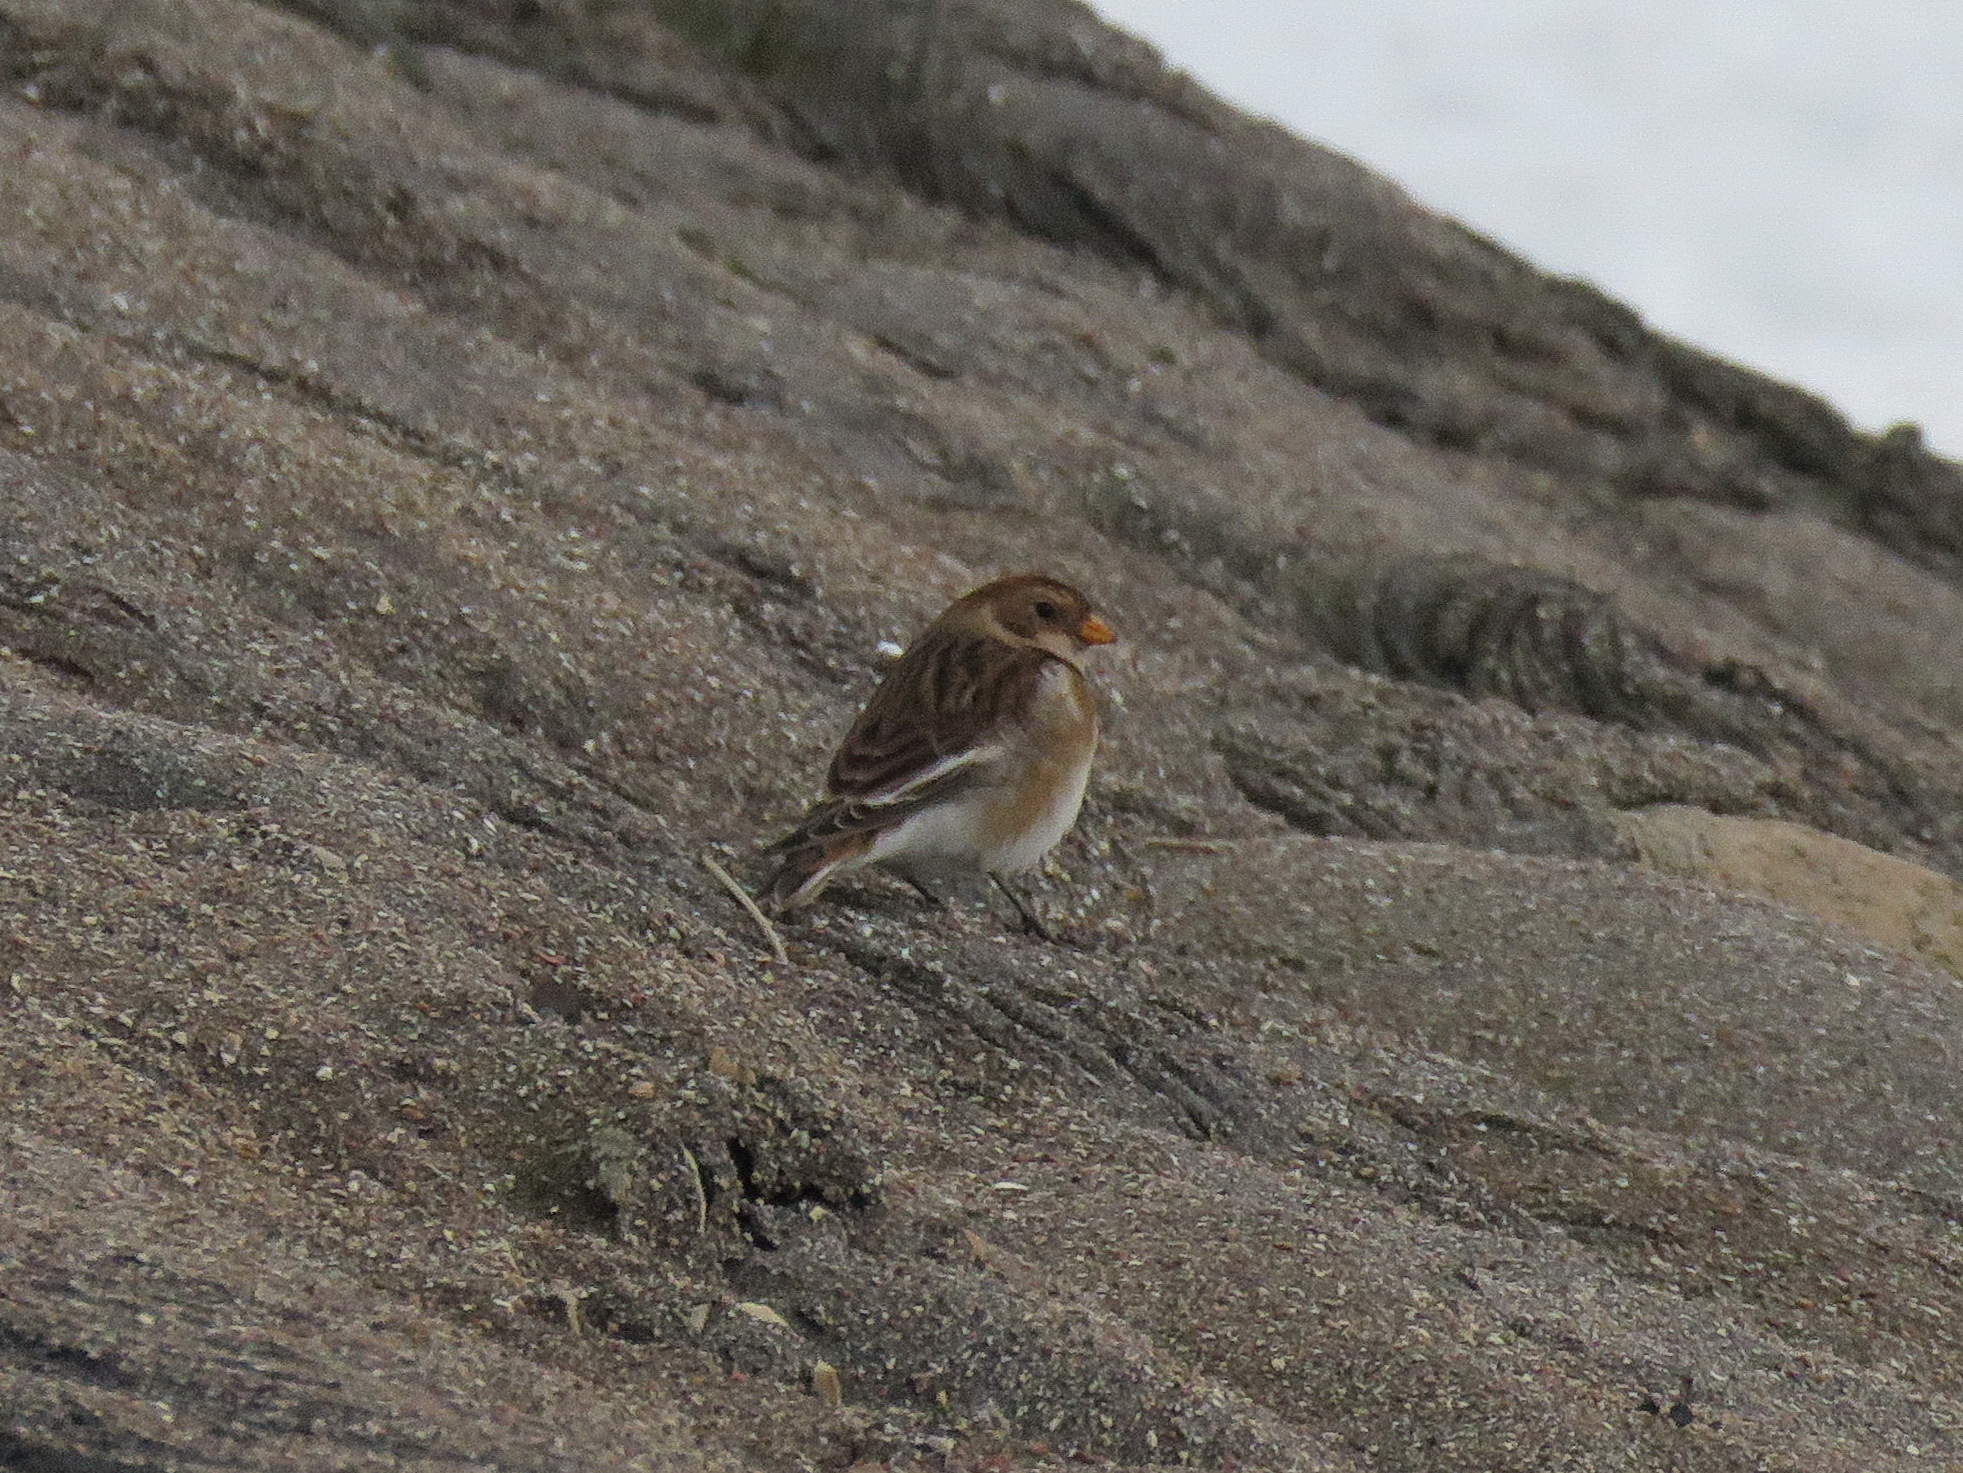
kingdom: Animalia
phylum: Chordata
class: Aves
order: Passeriformes
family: Calcariidae
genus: Plectrophenax
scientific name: Plectrophenax nivalis
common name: Snow bunting
